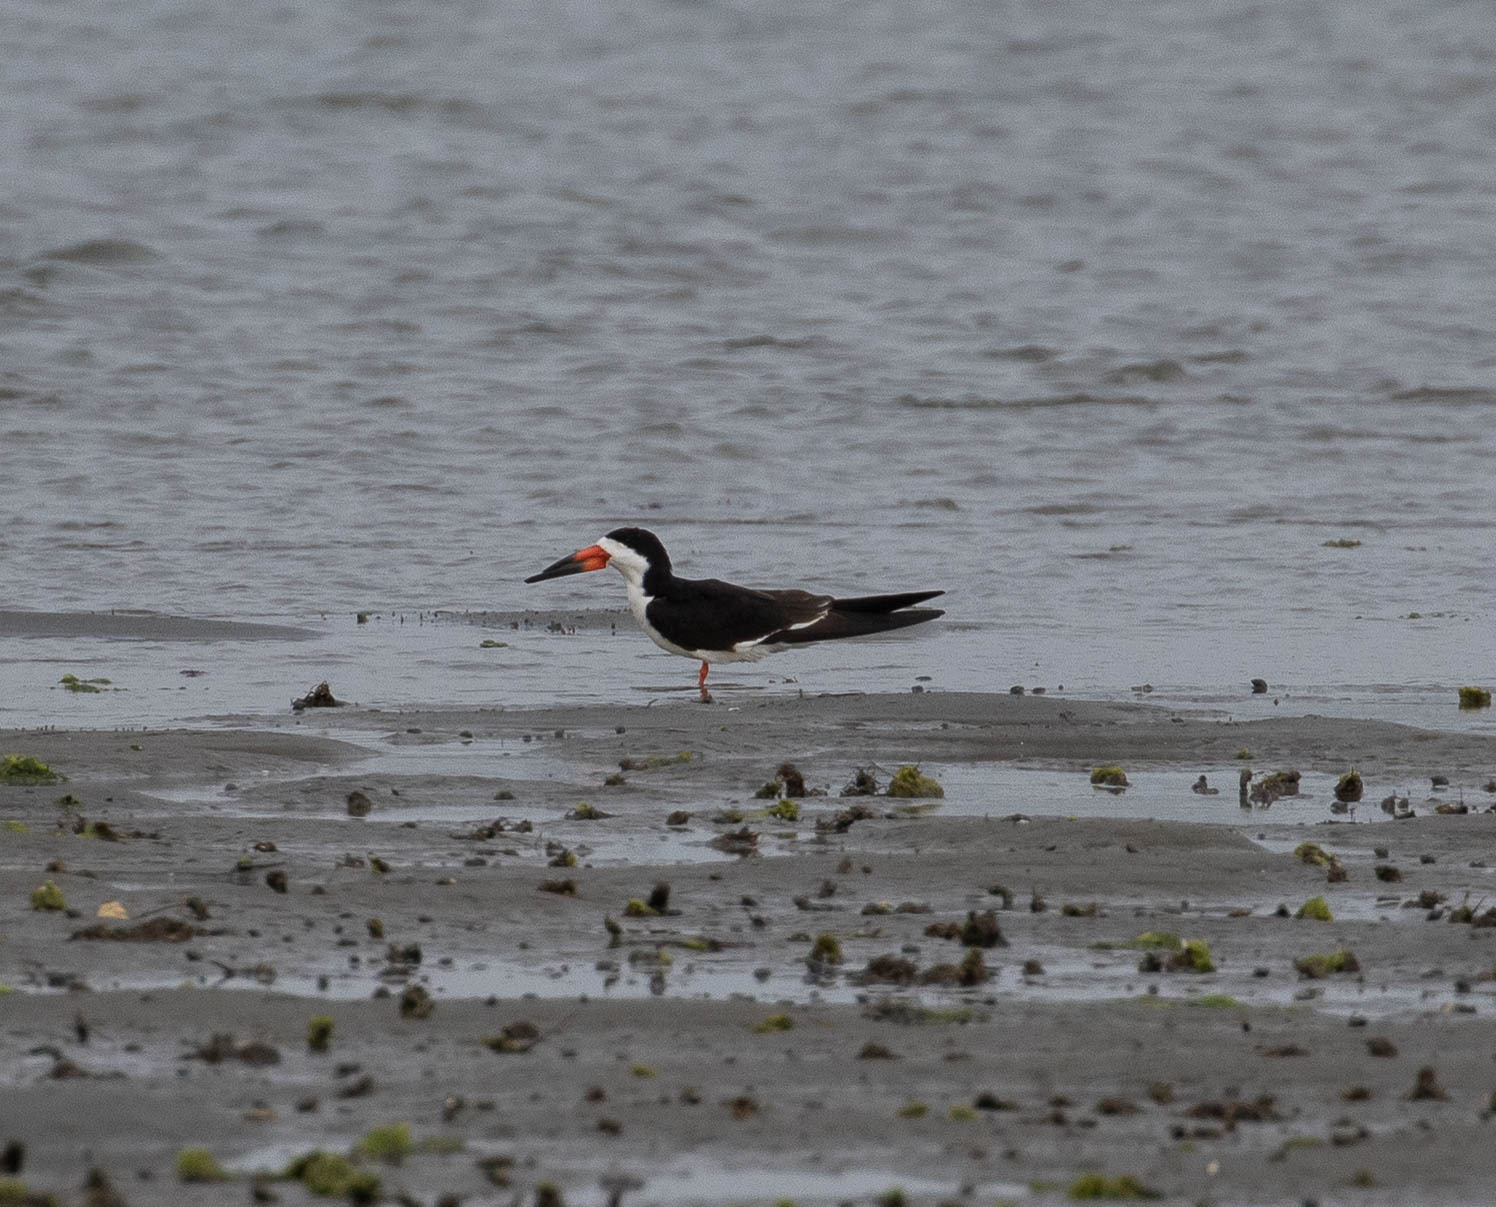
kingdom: Animalia
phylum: Chordata
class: Aves
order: Charadriiformes
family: Laridae
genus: Rynchops
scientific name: Rynchops niger
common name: Black skimmer
